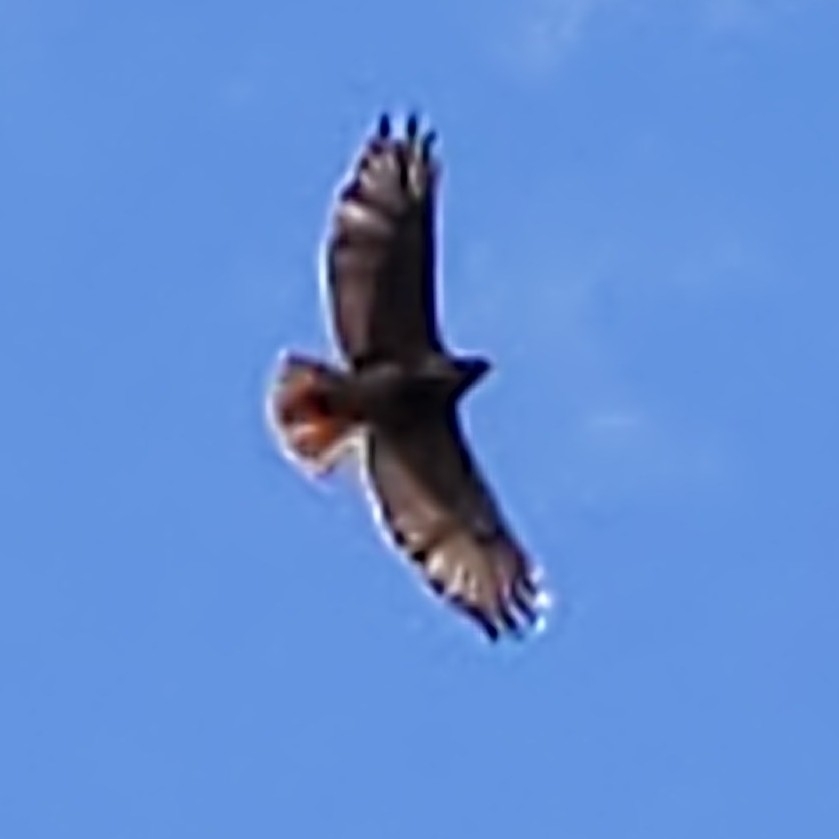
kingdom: Animalia
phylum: Chordata
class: Aves
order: Accipitriformes
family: Accipitridae
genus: Buteo
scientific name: Buteo jamaicensis
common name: Red-tailed hawk
